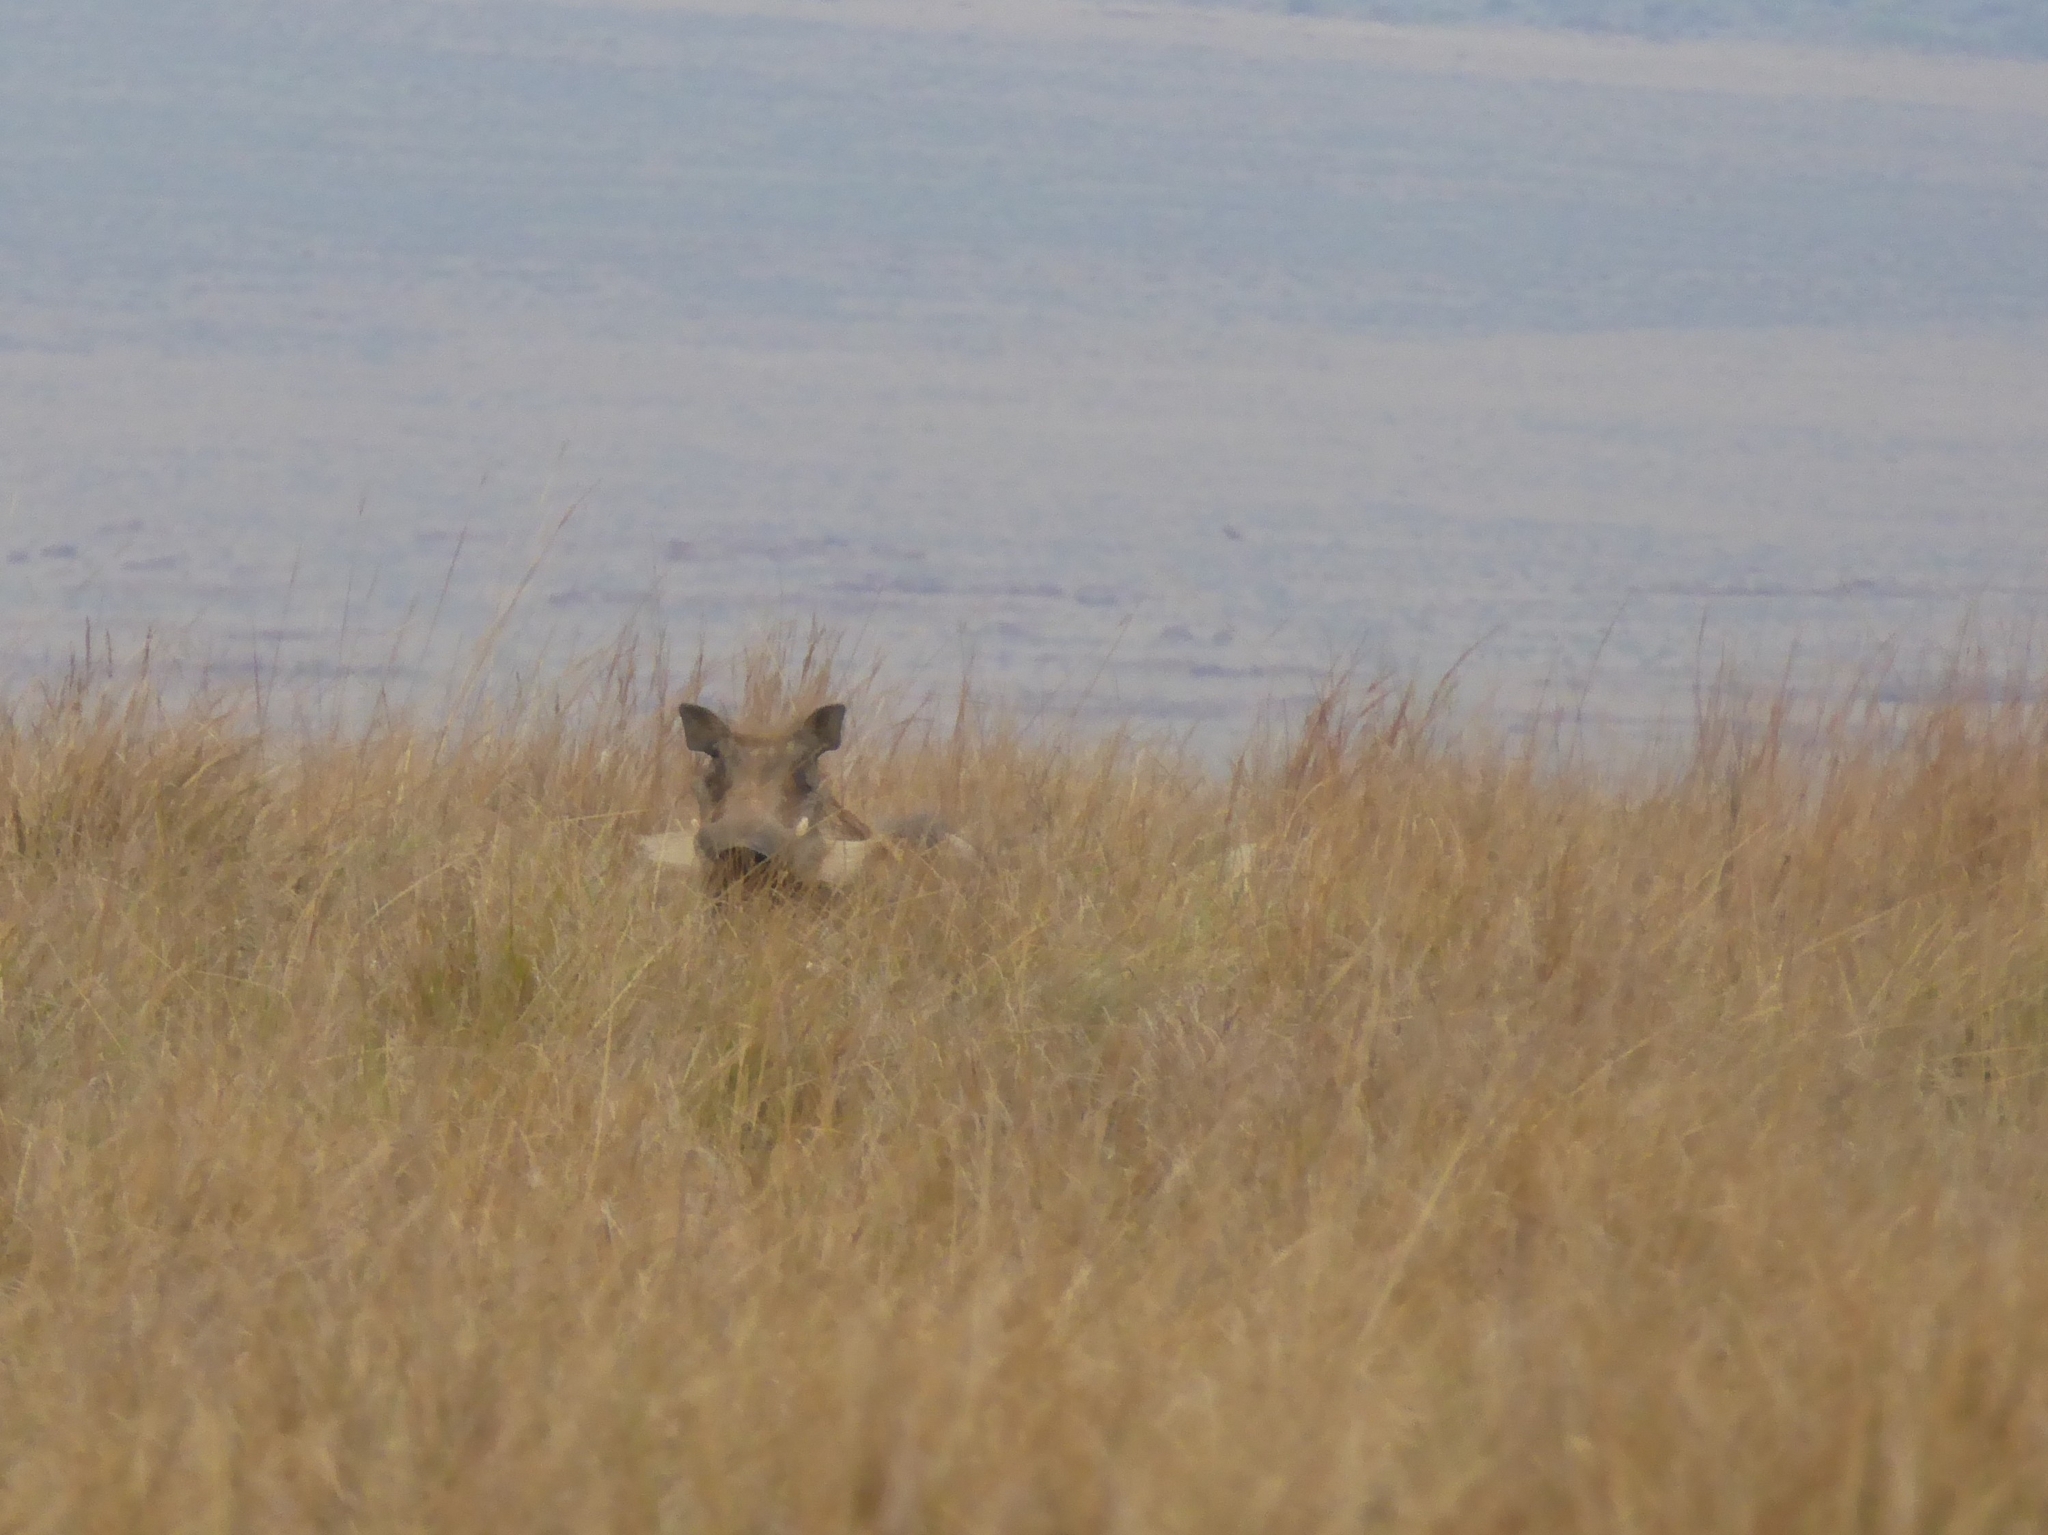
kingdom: Animalia
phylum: Chordata
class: Mammalia
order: Artiodactyla
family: Suidae
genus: Phacochoerus
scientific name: Phacochoerus africanus
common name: Common warthog
